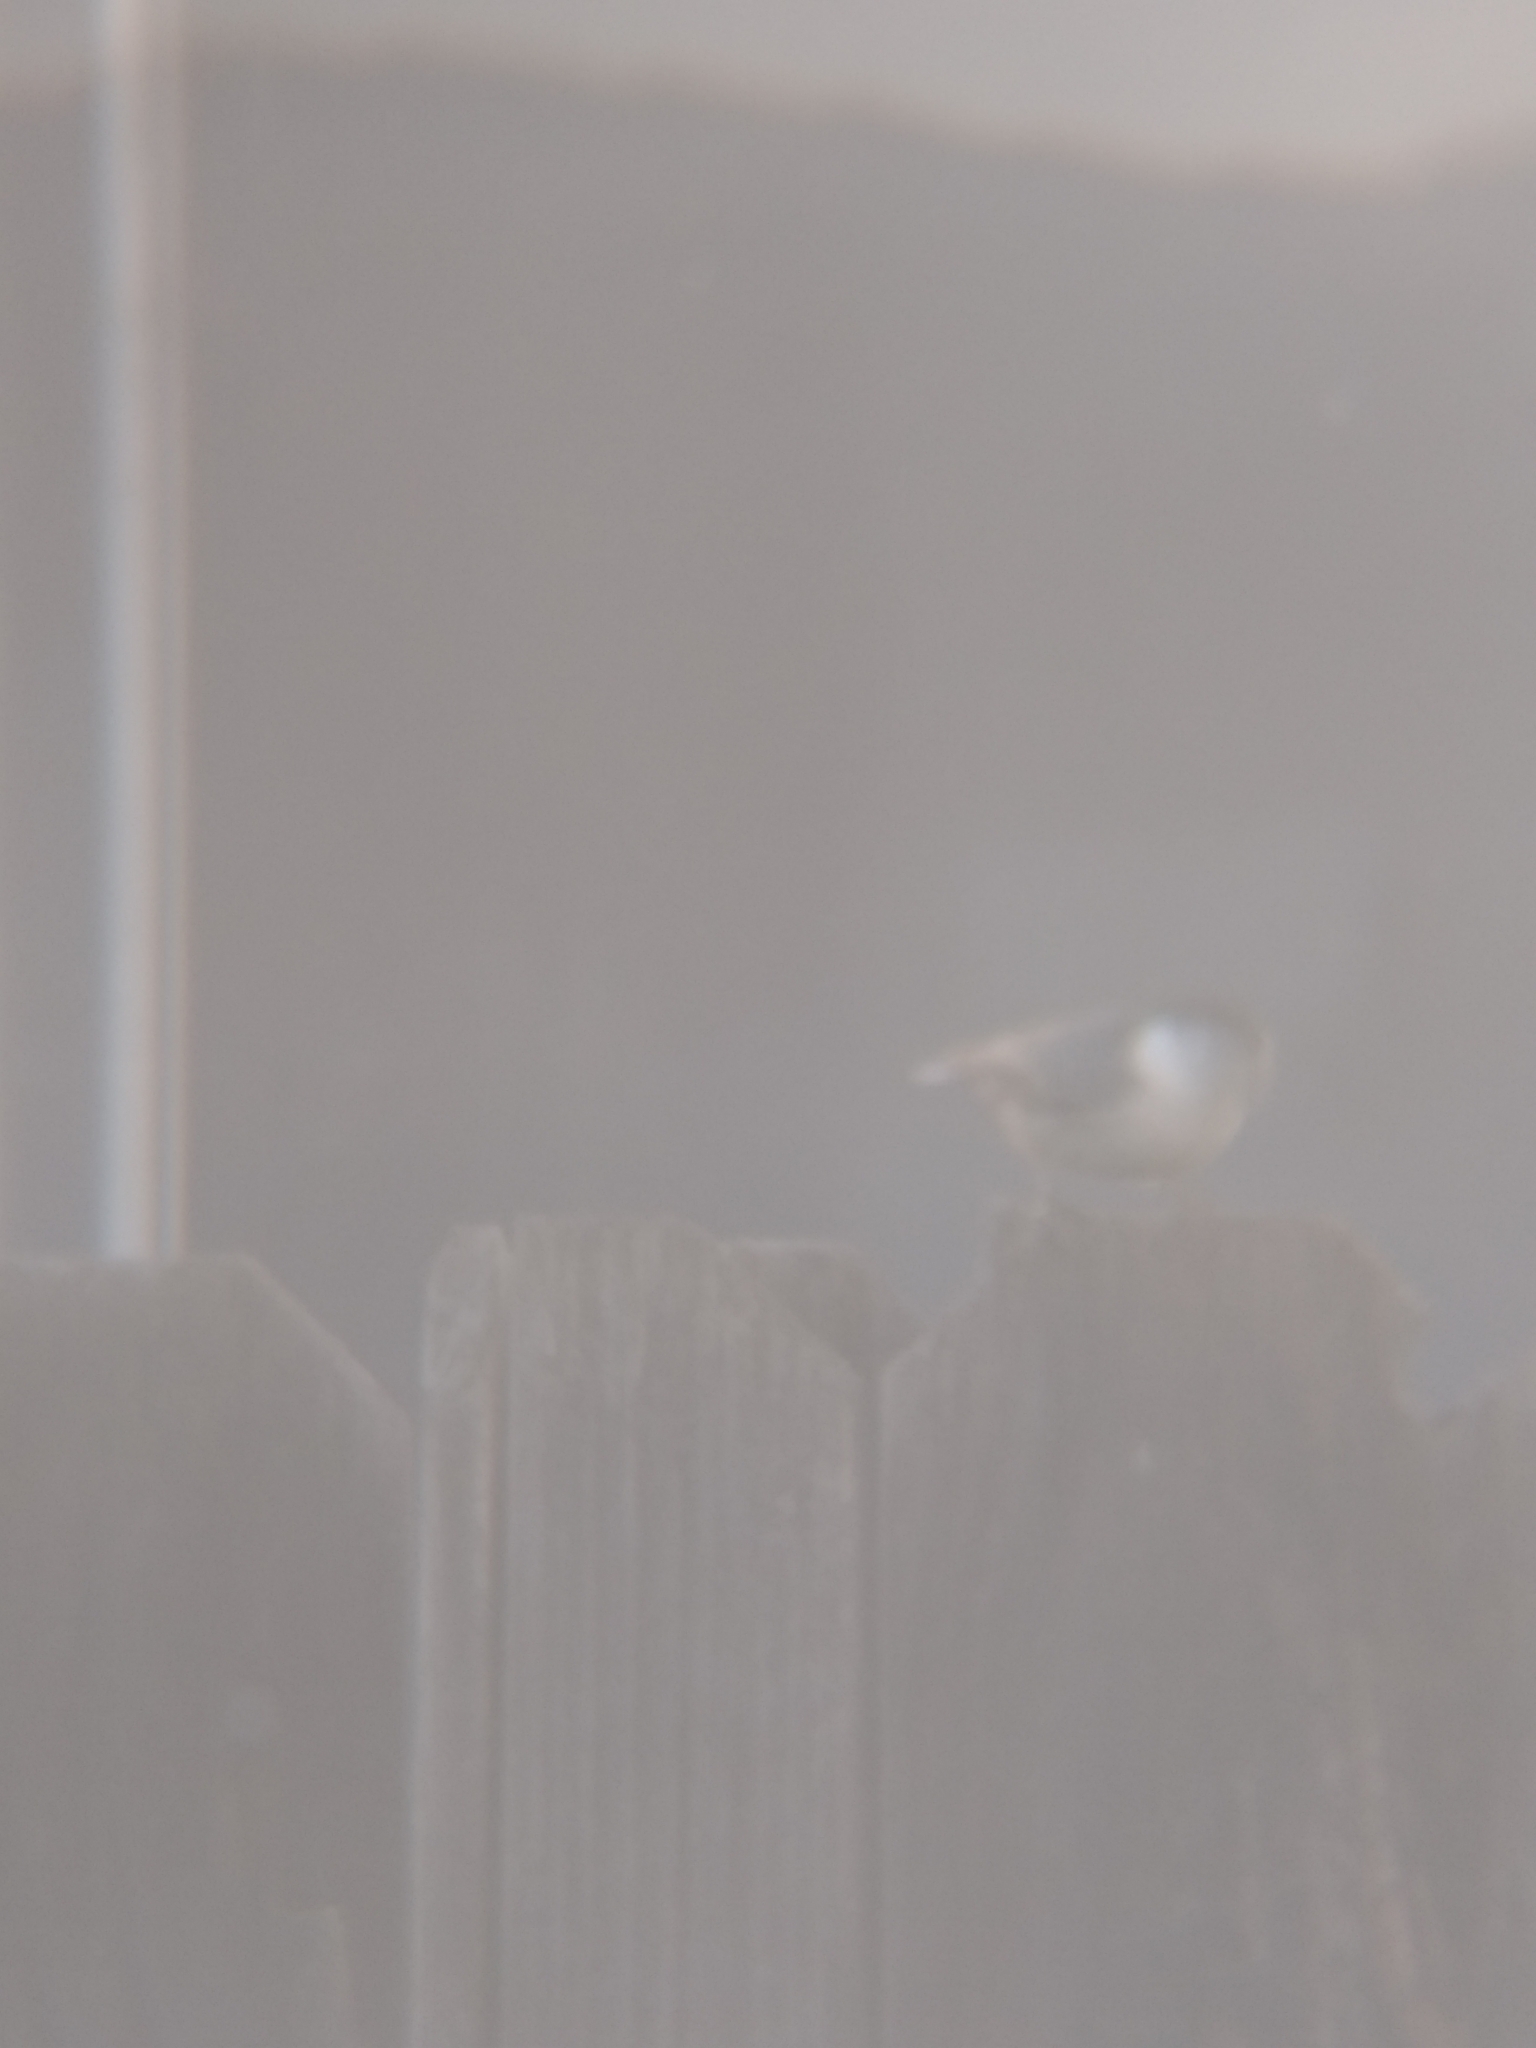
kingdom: Animalia
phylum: Chordata
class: Aves
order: Passeriformes
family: Sittidae
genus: Sitta
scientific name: Sitta carolinensis
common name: White-breasted nuthatch
